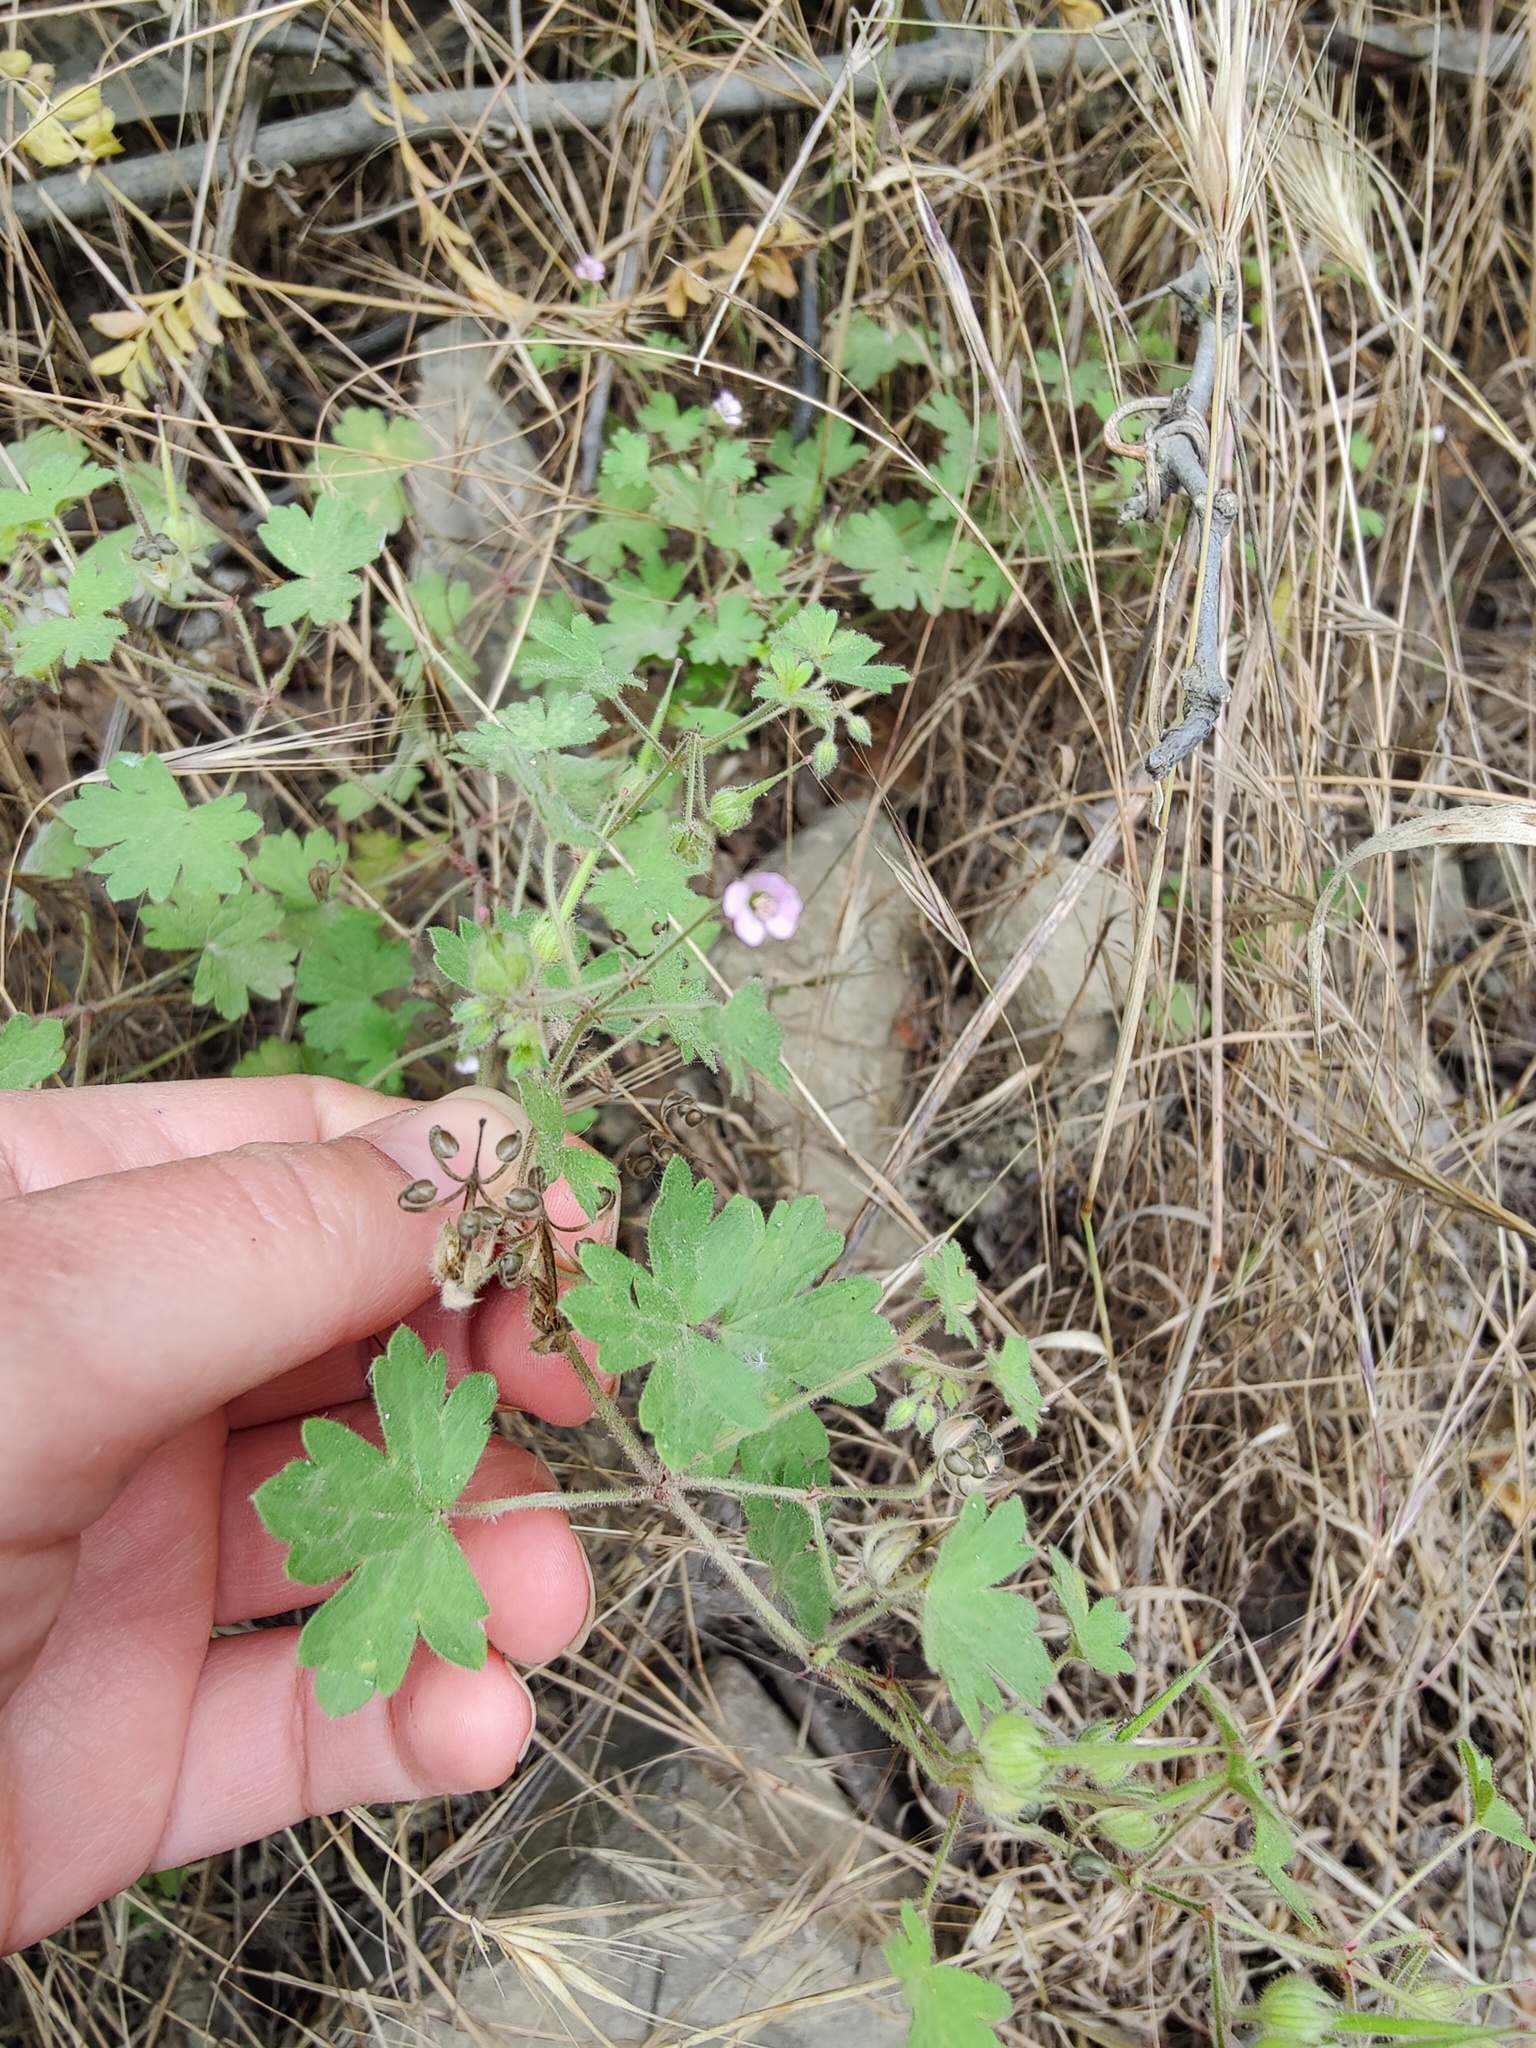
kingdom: Plantae
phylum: Tracheophyta
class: Magnoliopsida
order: Geraniales
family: Geraniaceae
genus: Geranium
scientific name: Geranium rotundifolium
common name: Round-leaved crane's-bill
